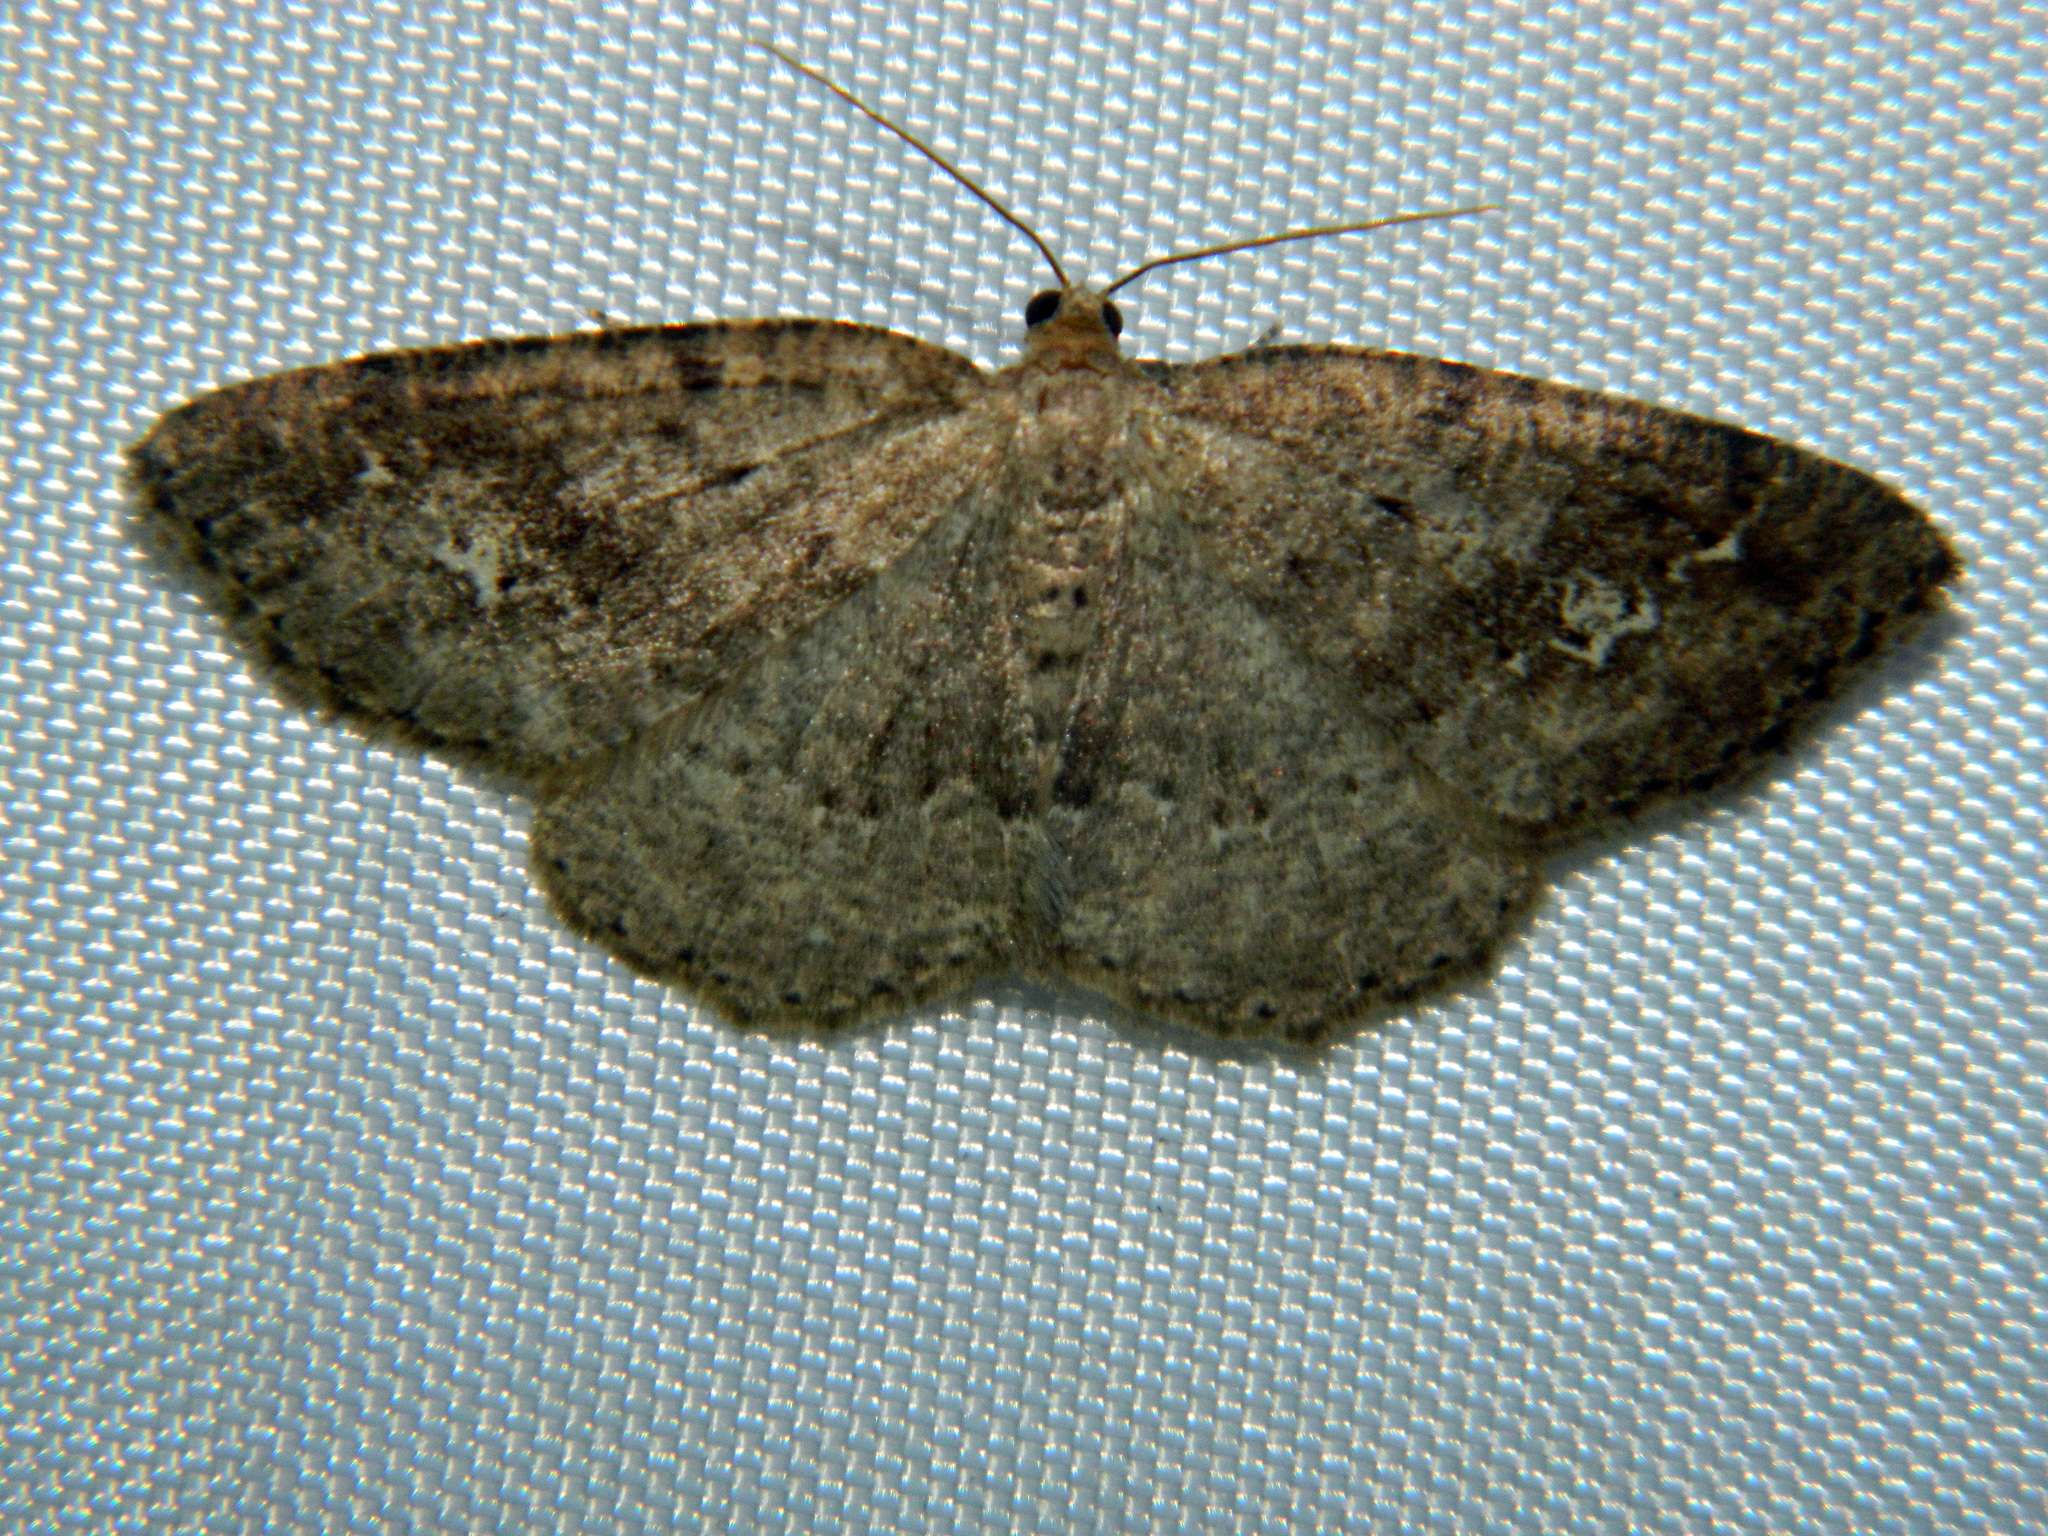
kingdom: Animalia
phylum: Arthropoda
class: Insecta
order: Lepidoptera
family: Geometridae
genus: Homochlodes
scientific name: Homochlodes fritillaria
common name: Pale homochlodes
